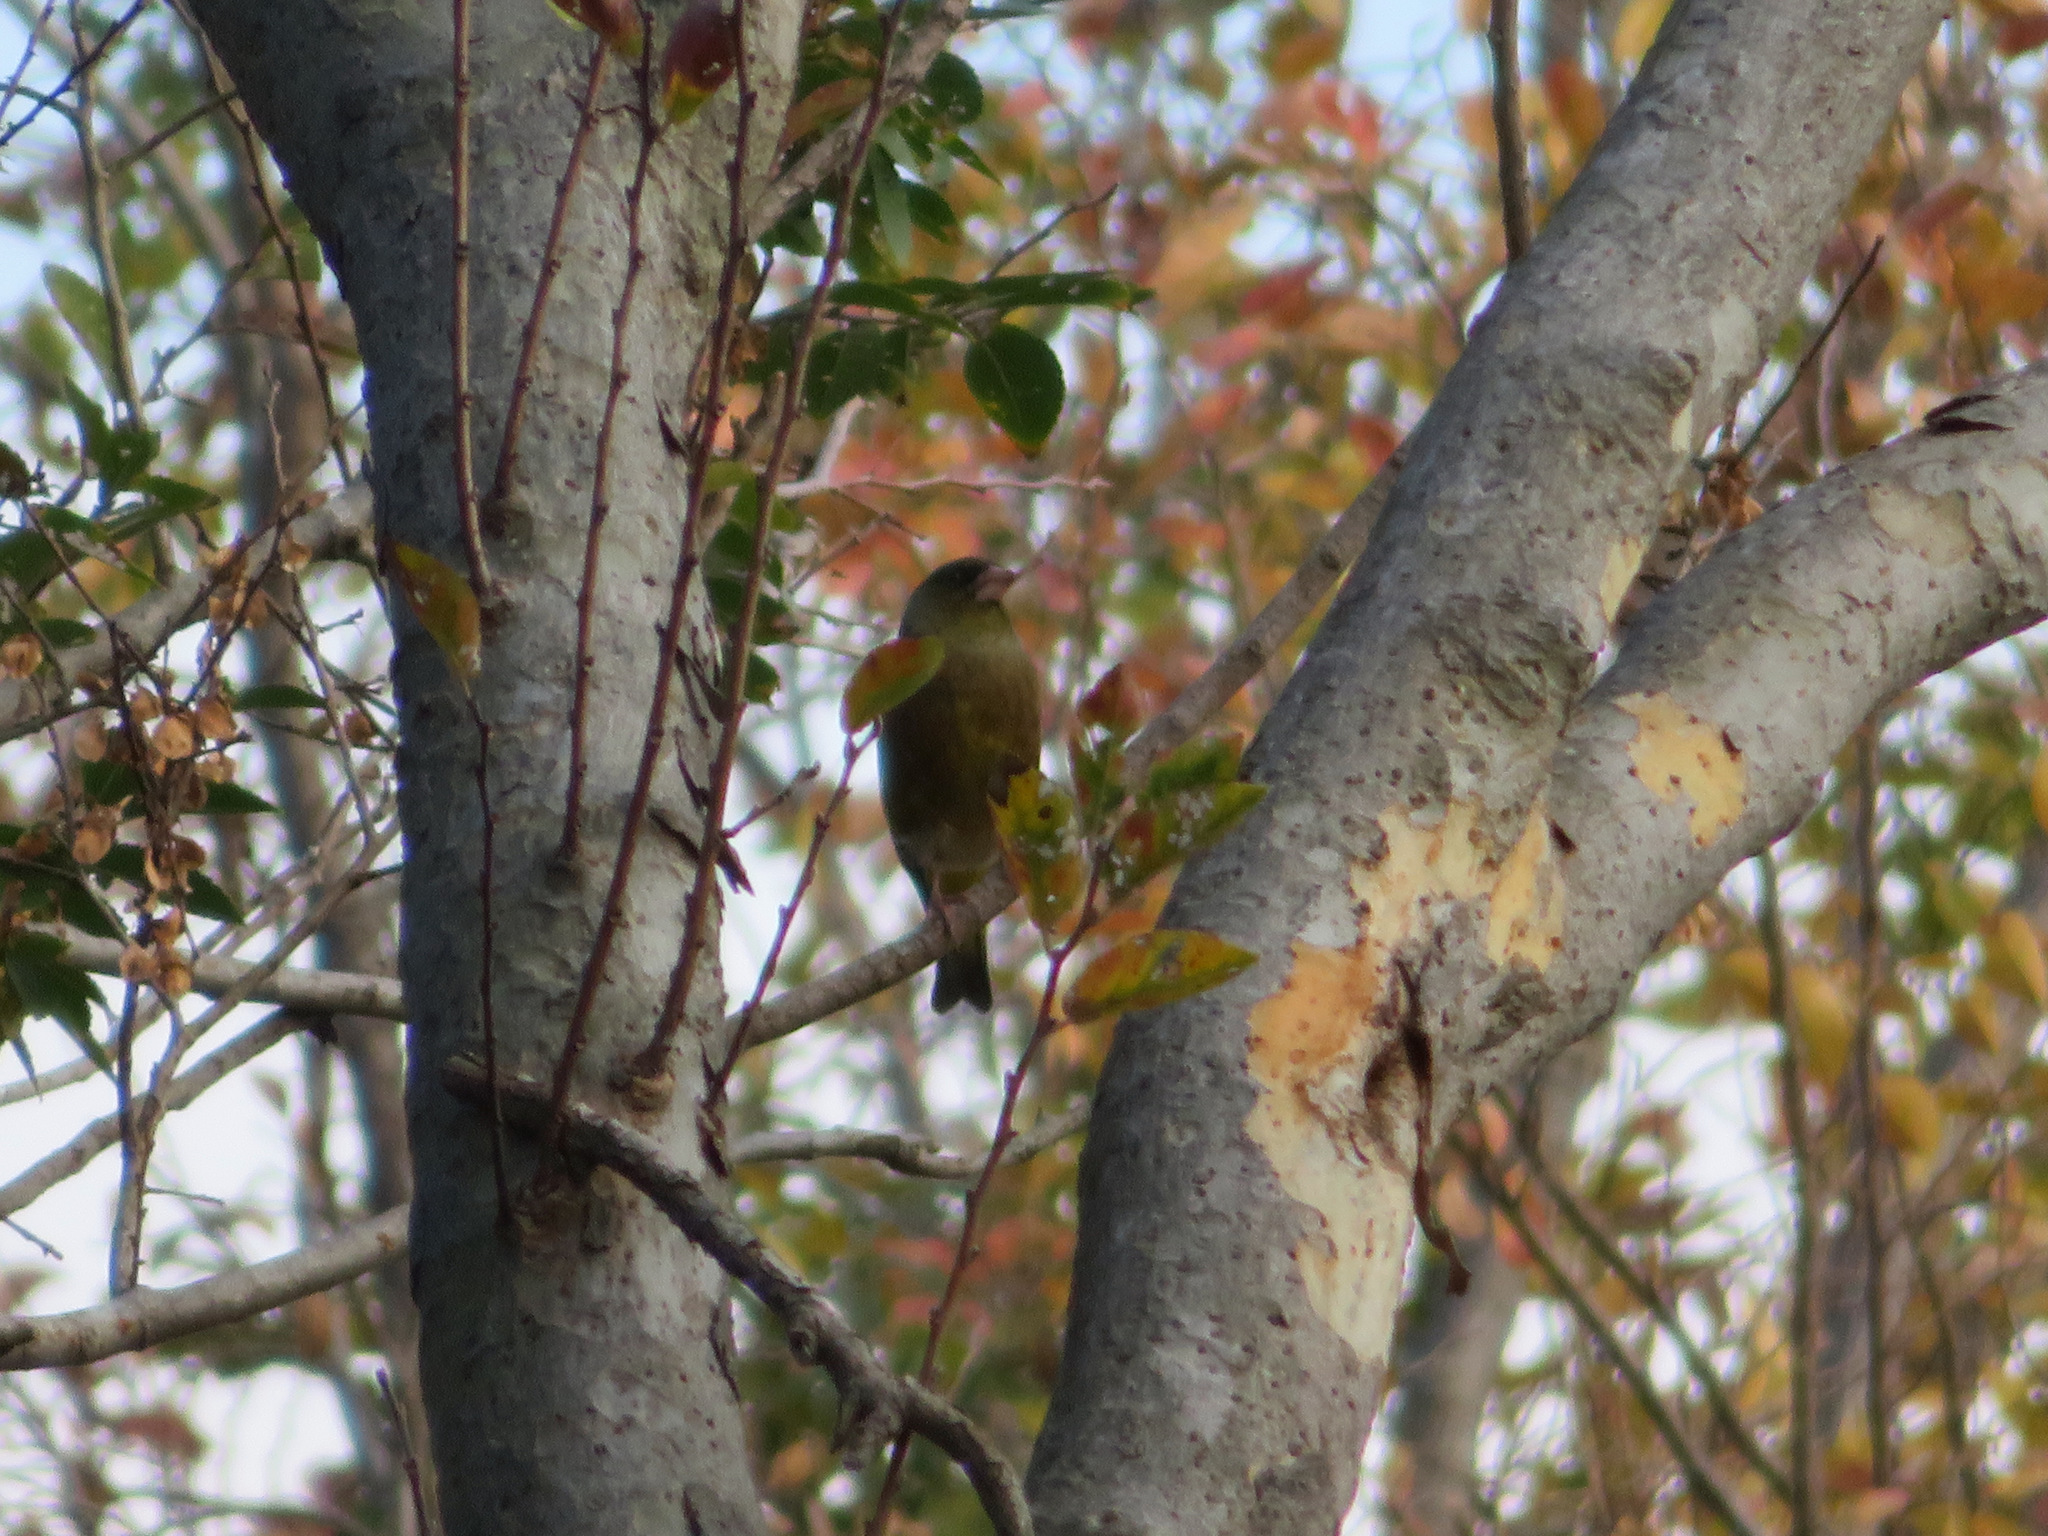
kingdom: Plantae
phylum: Tracheophyta
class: Liliopsida
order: Poales
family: Poaceae
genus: Chloris
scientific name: Chloris sinica
